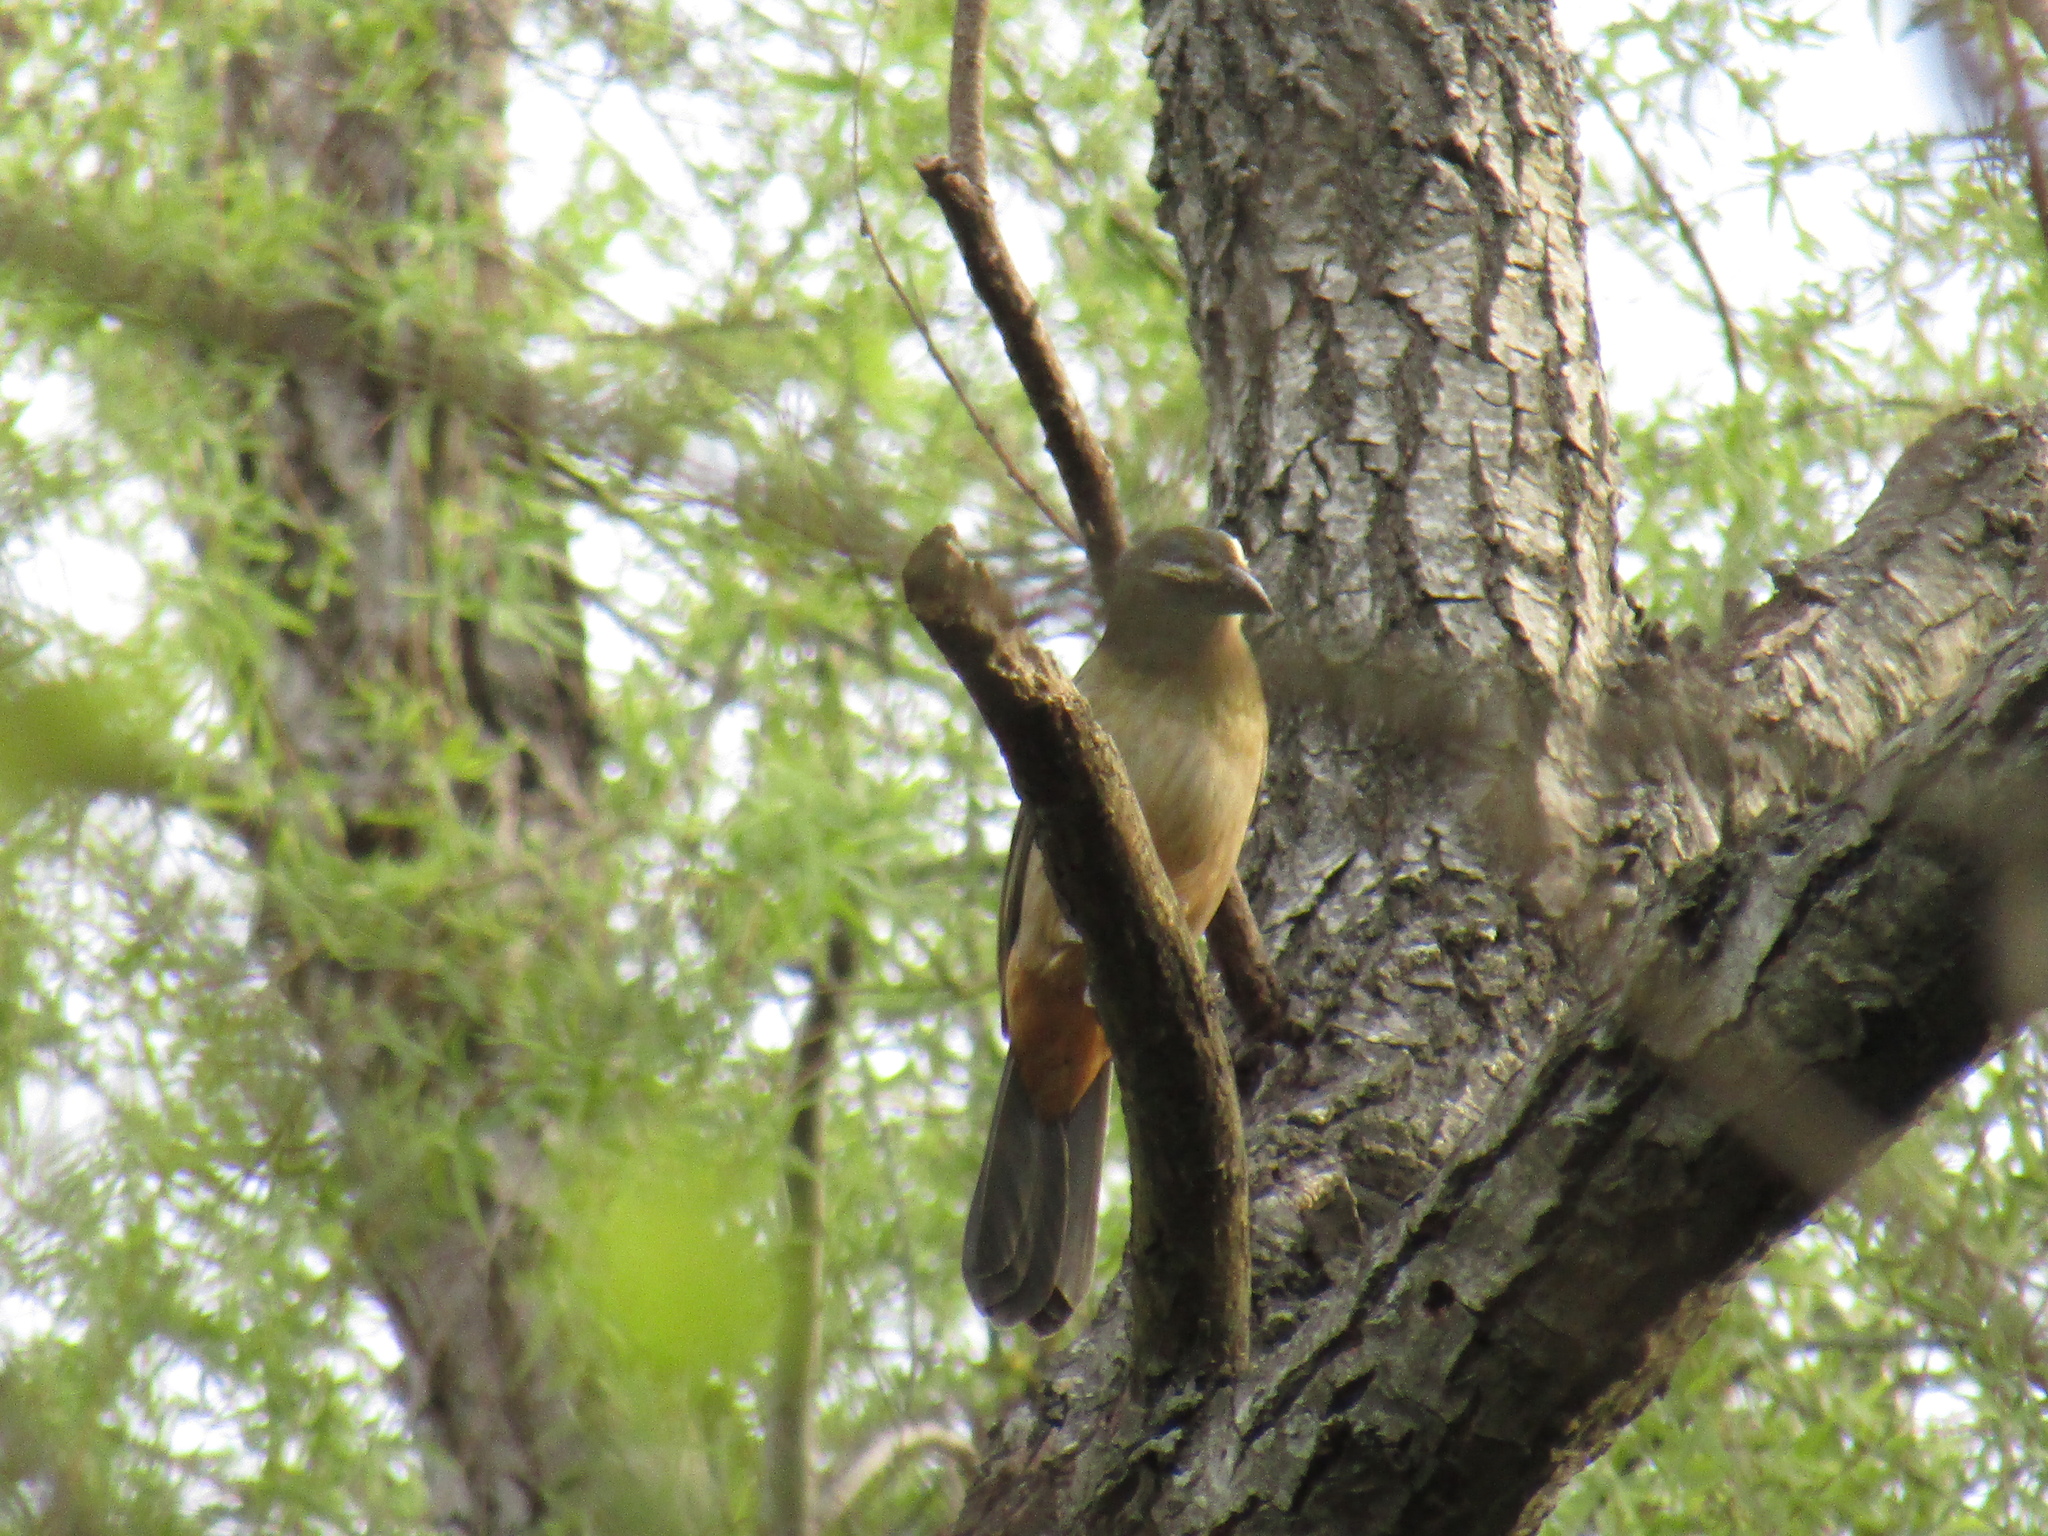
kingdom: Animalia
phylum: Chordata
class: Aves
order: Passeriformes
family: Thraupidae
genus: Saltator
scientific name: Saltator coerulescens
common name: Grayish saltator
